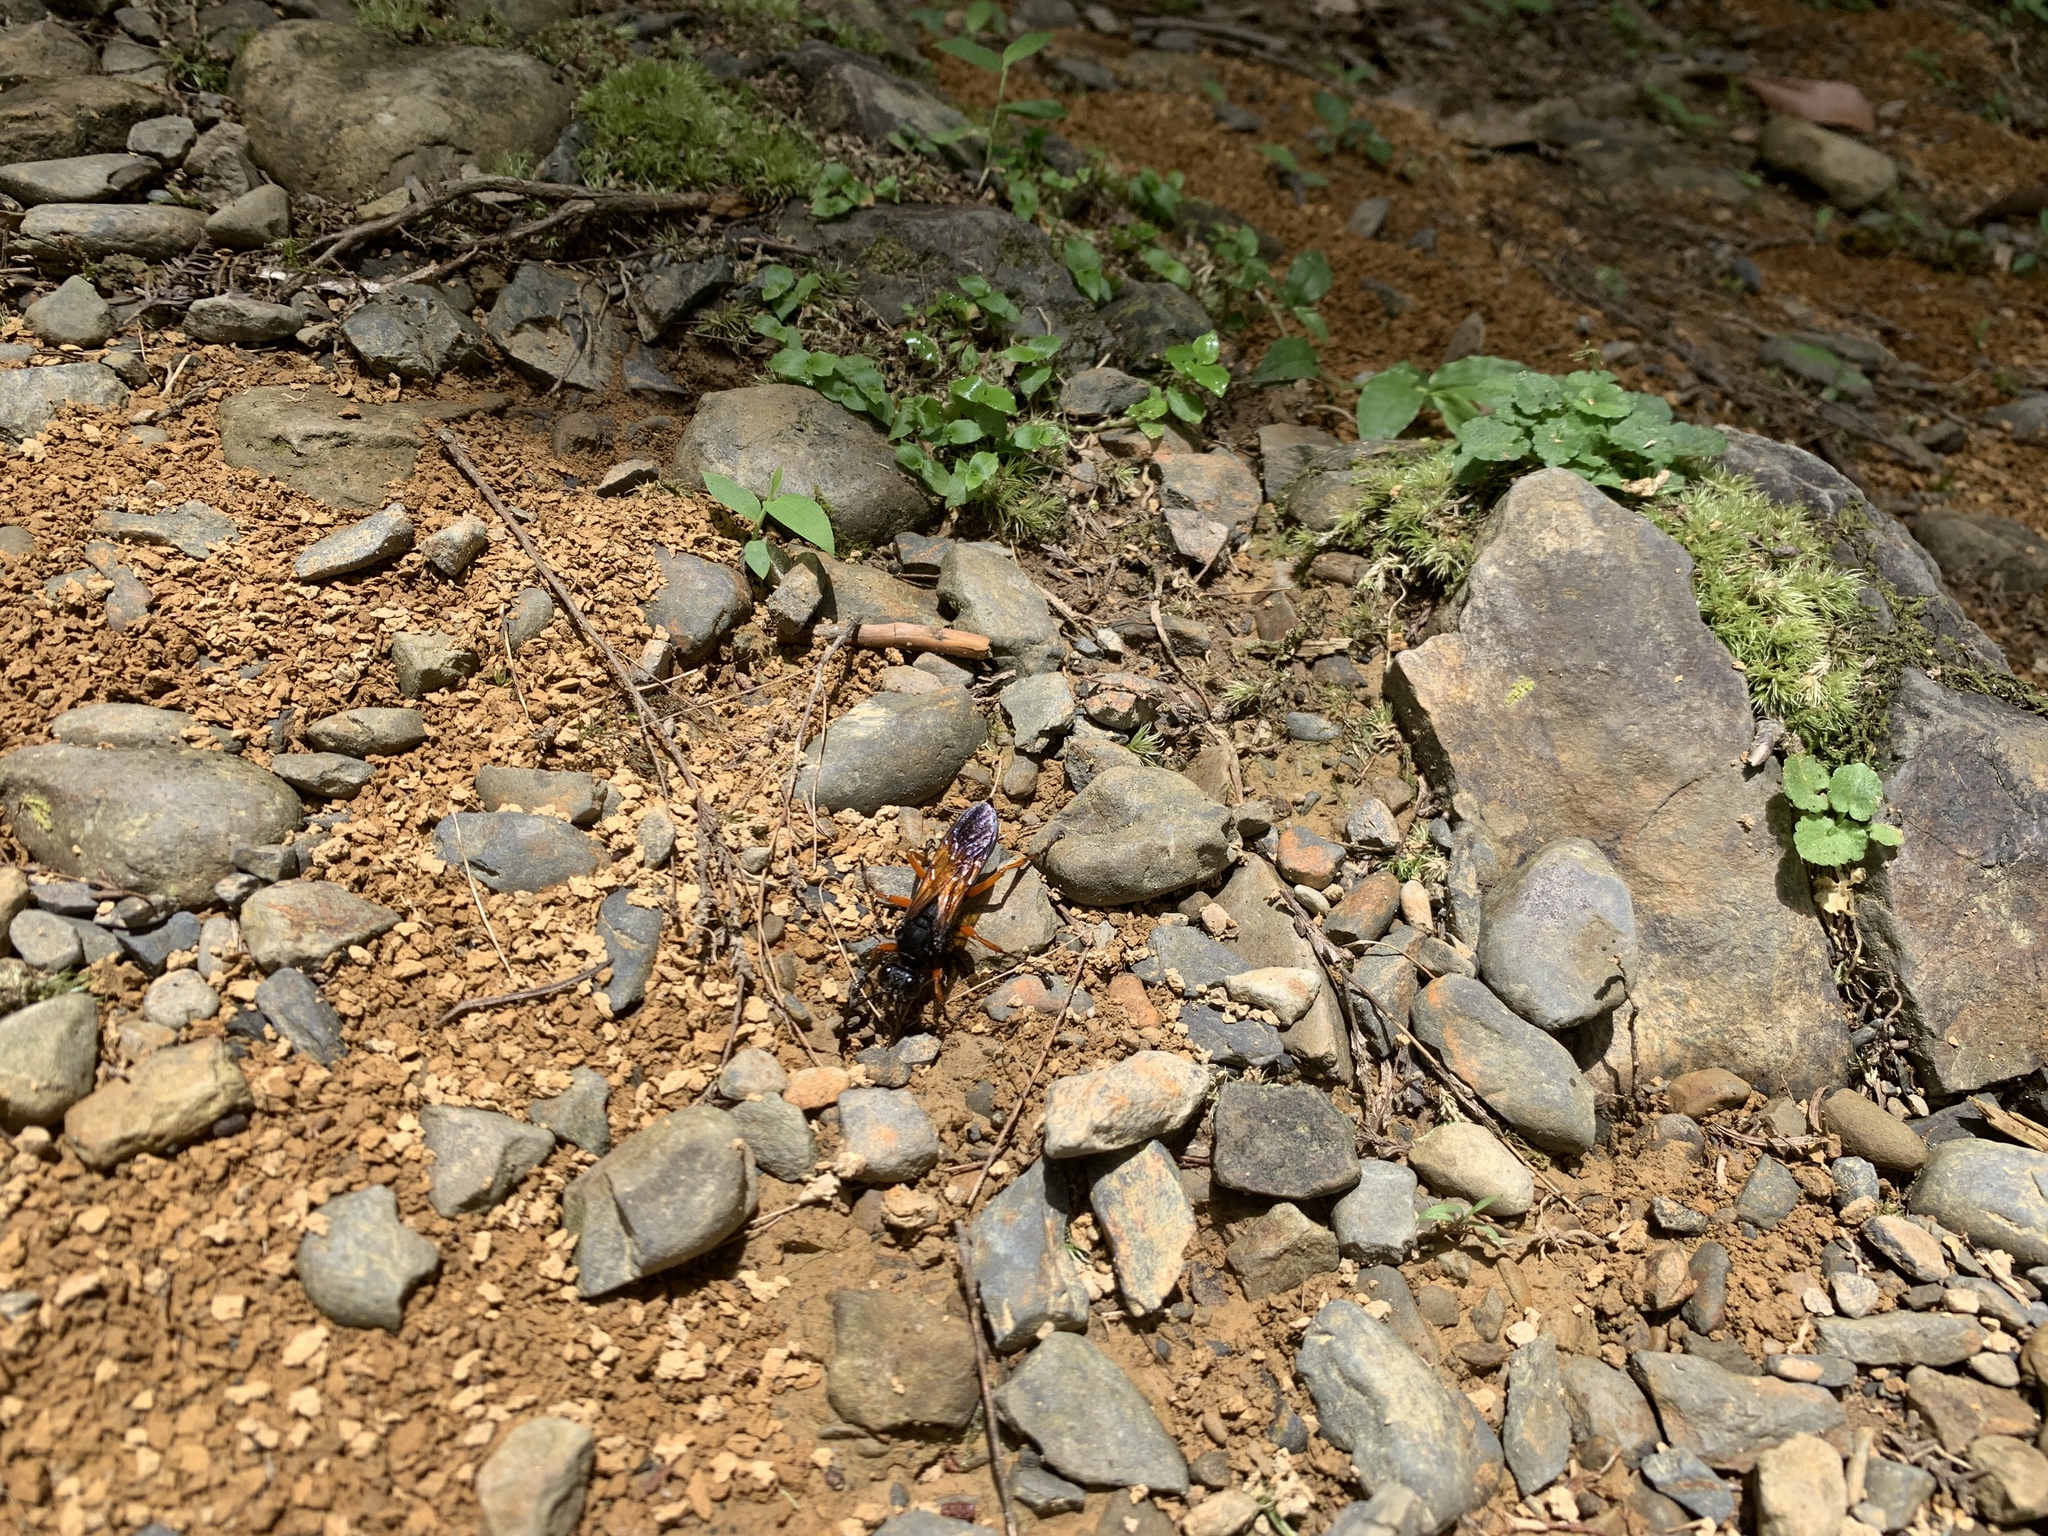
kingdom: Animalia
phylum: Arthropoda
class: Insecta
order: Hymenoptera
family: Sphecidae
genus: Sphex
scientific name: Sphex subtruncatus
